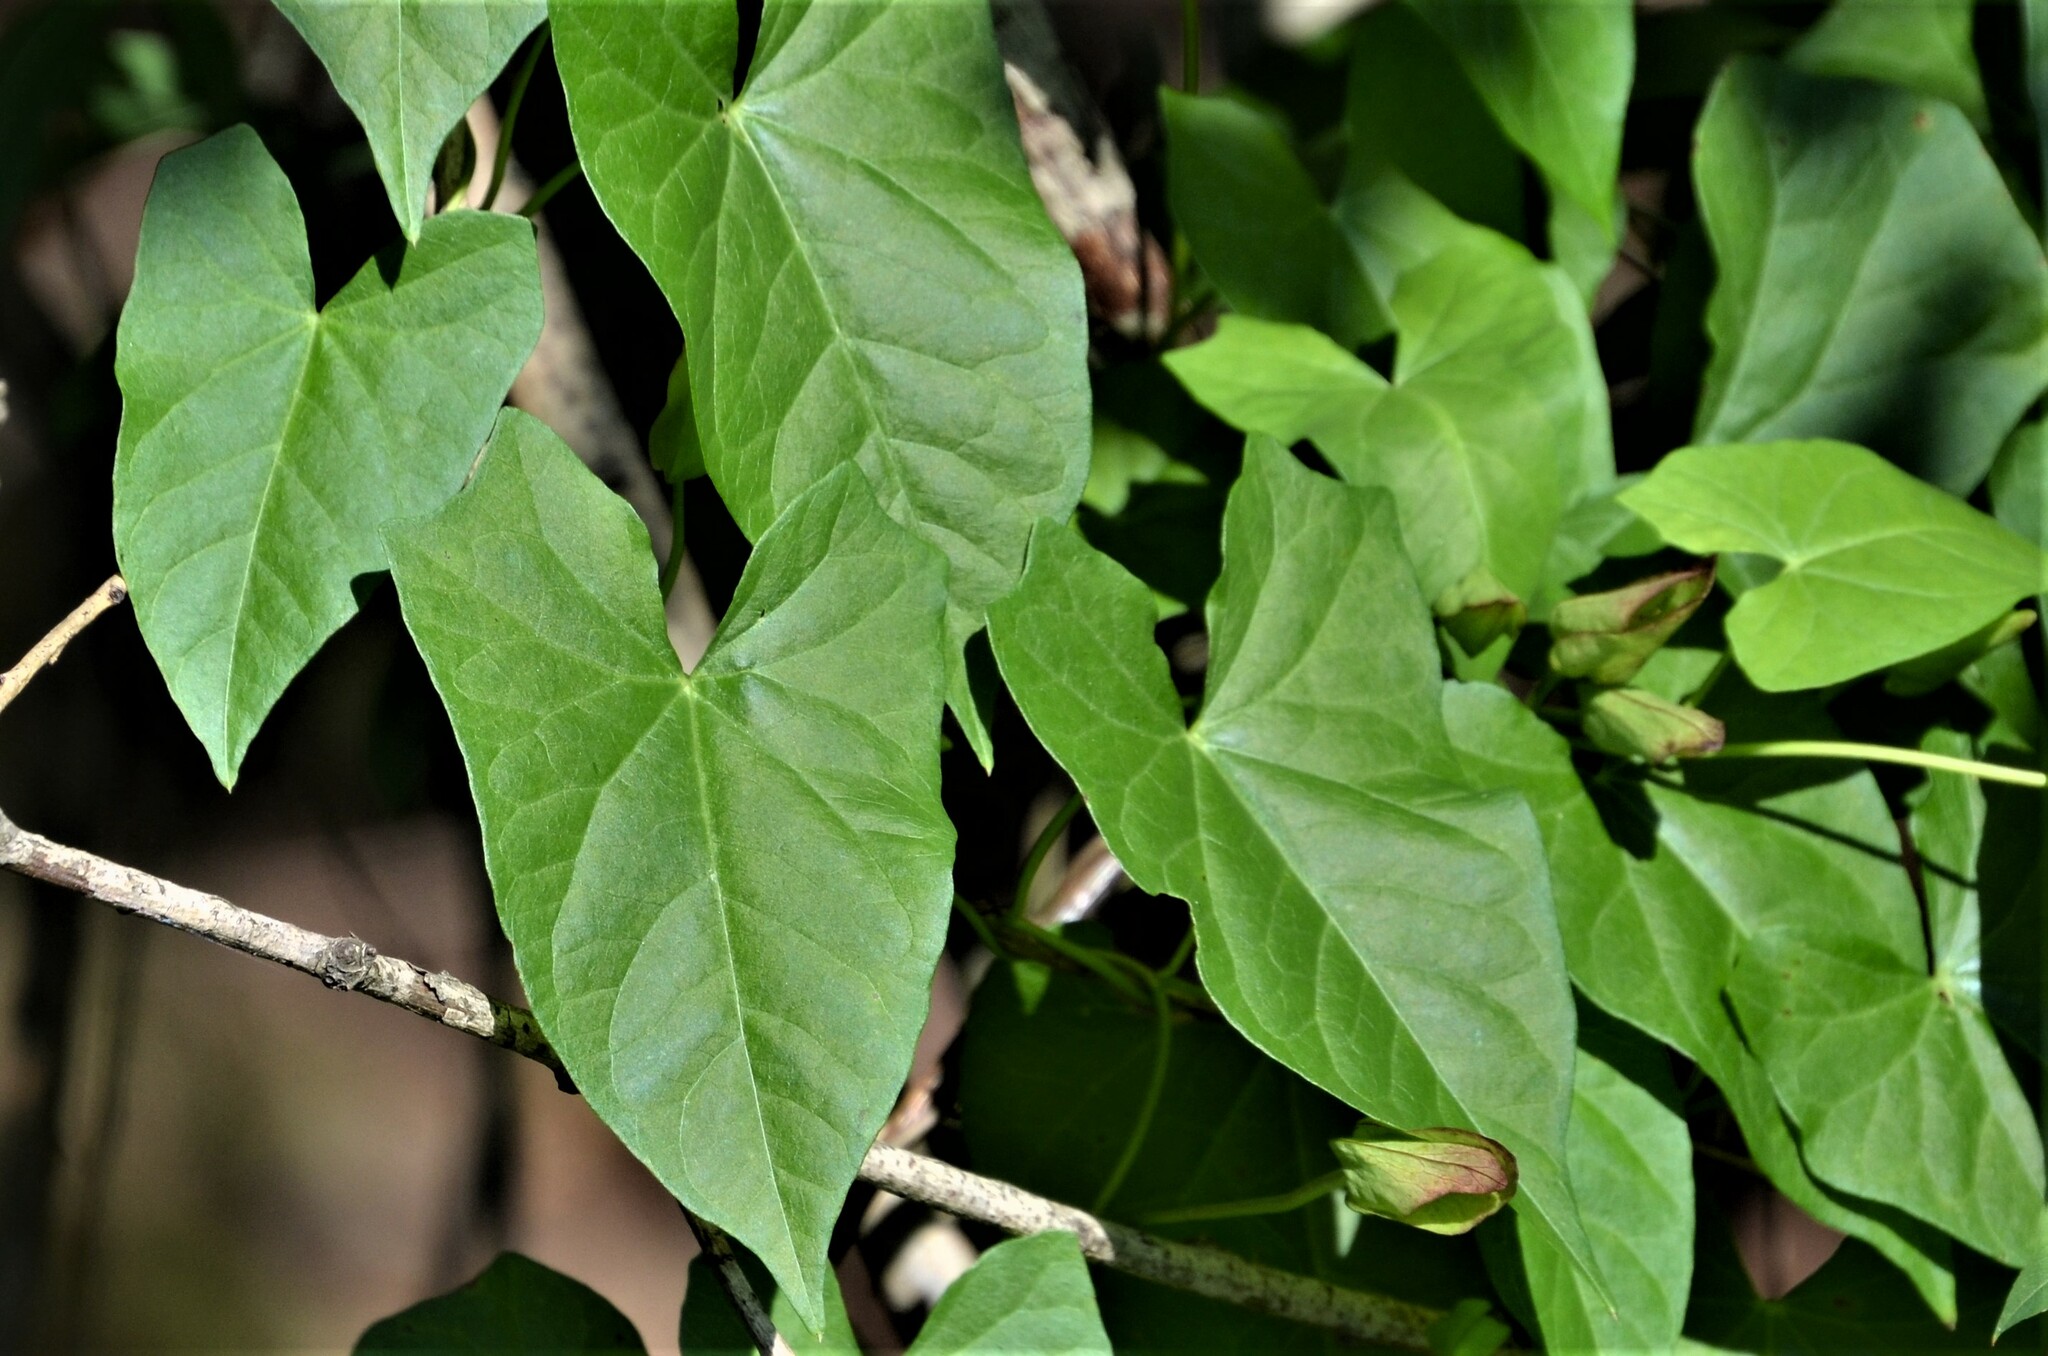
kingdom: Plantae
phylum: Tracheophyta
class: Magnoliopsida
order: Solanales
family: Convolvulaceae
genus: Calystegia
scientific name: Calystegia sepium
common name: Hedge bindweed
